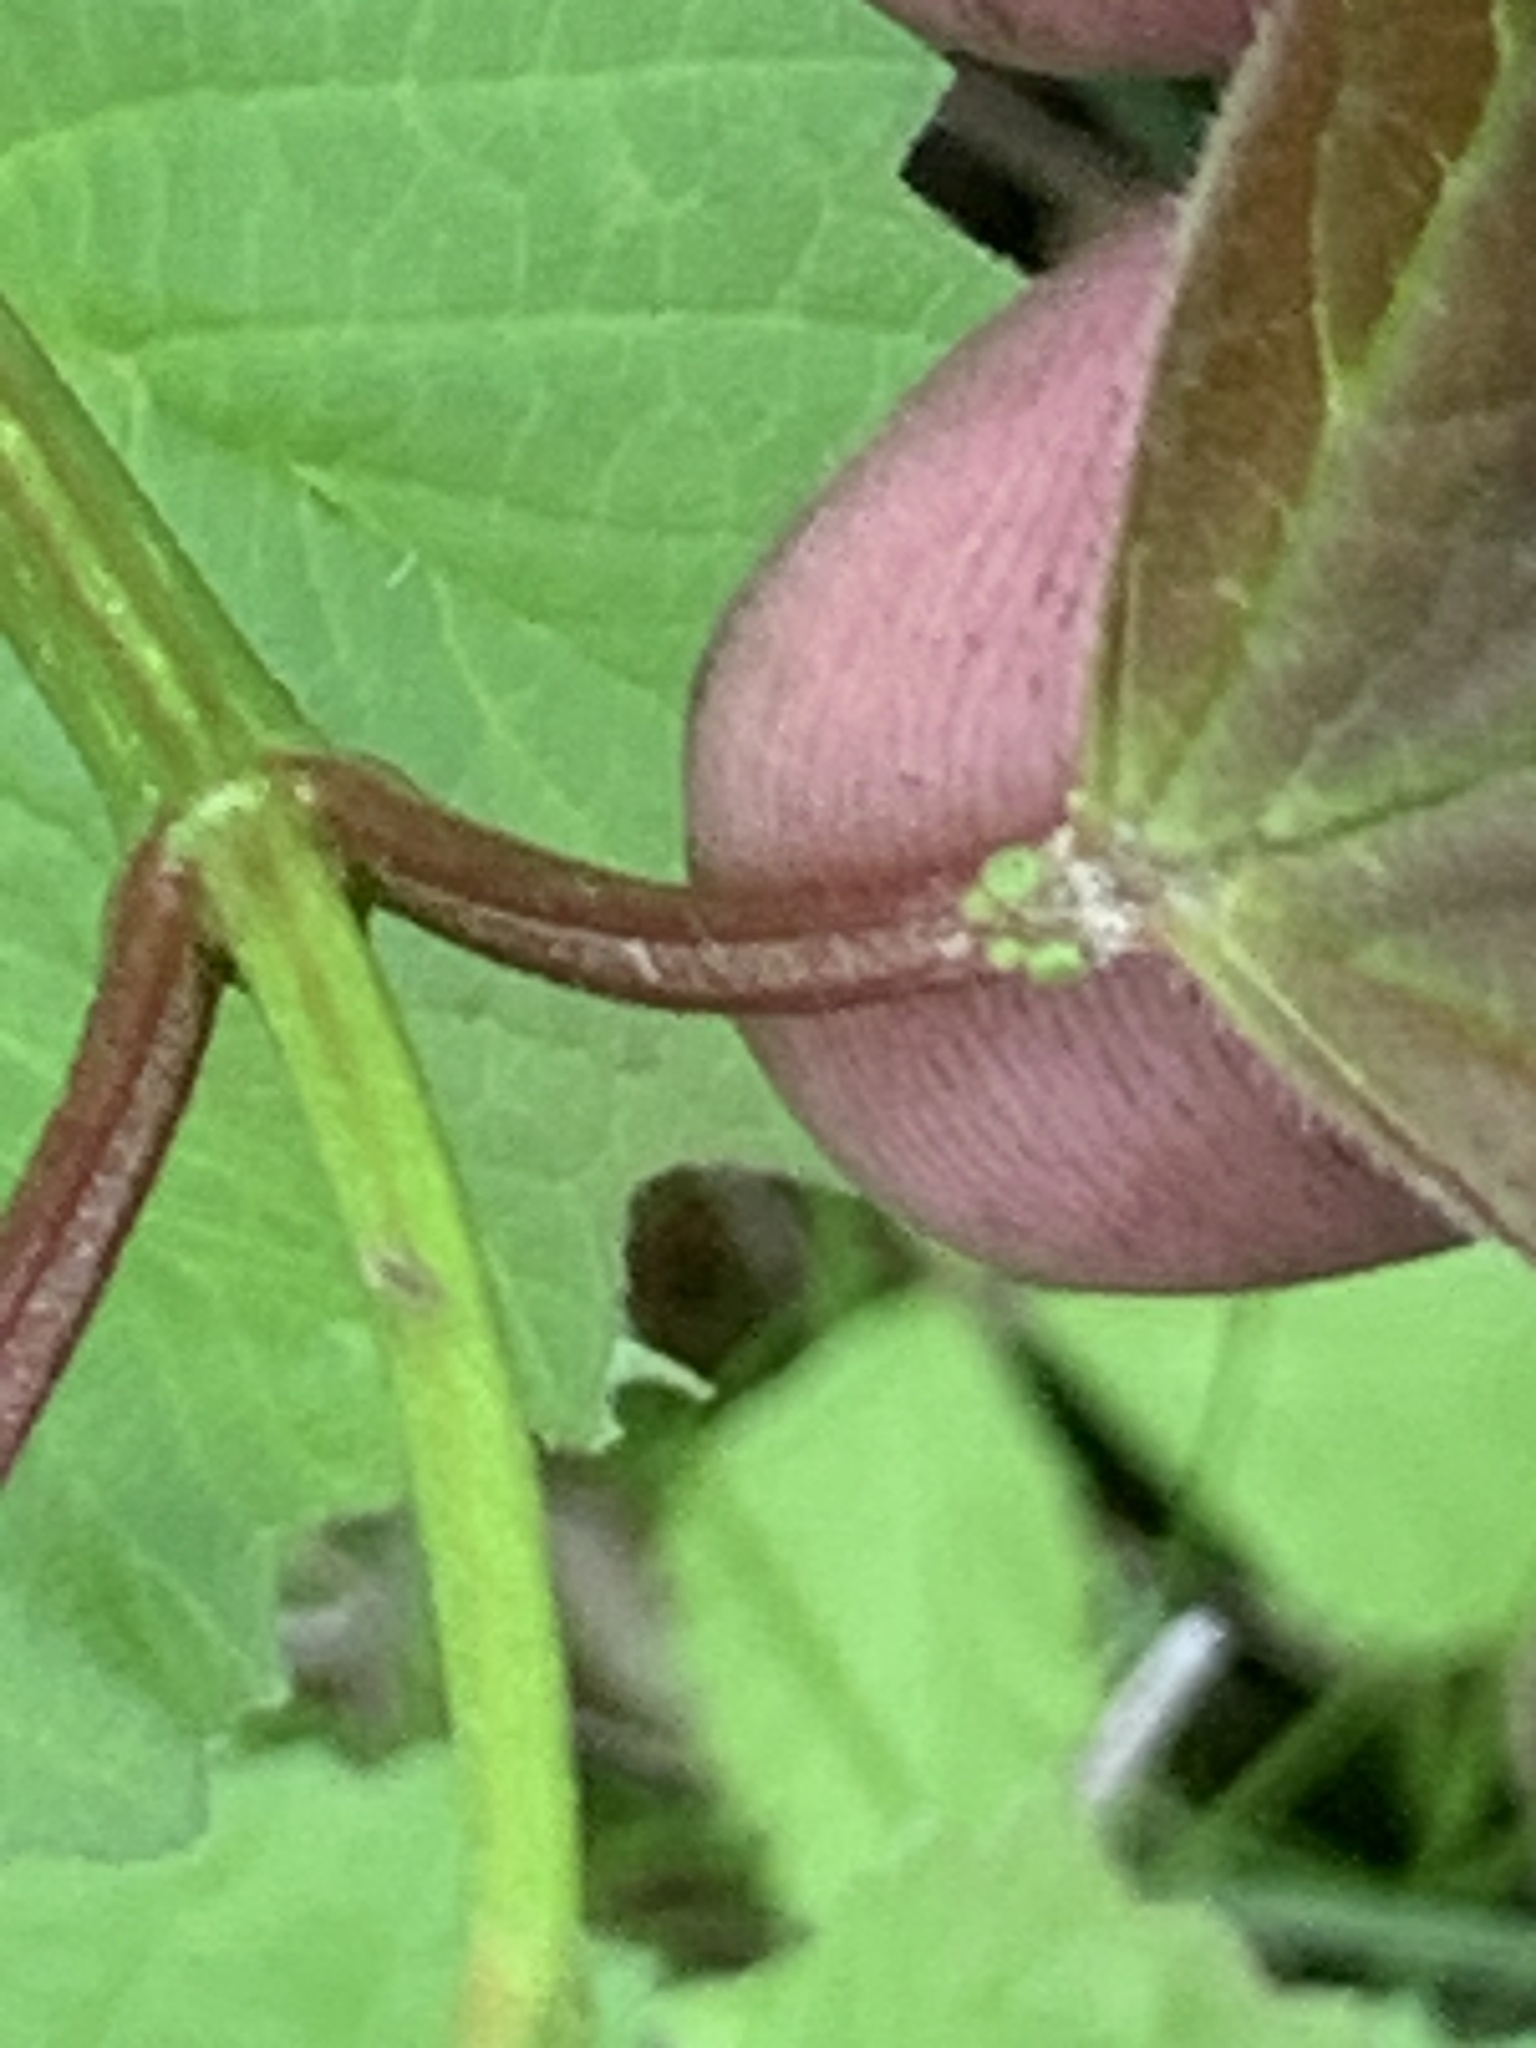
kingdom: Plantae
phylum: Tracheophyta
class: Magnoliopsida
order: Dipsacales
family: Viburnaceae
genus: Viburnum
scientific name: Viburnum opulus
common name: Guelder-rose
